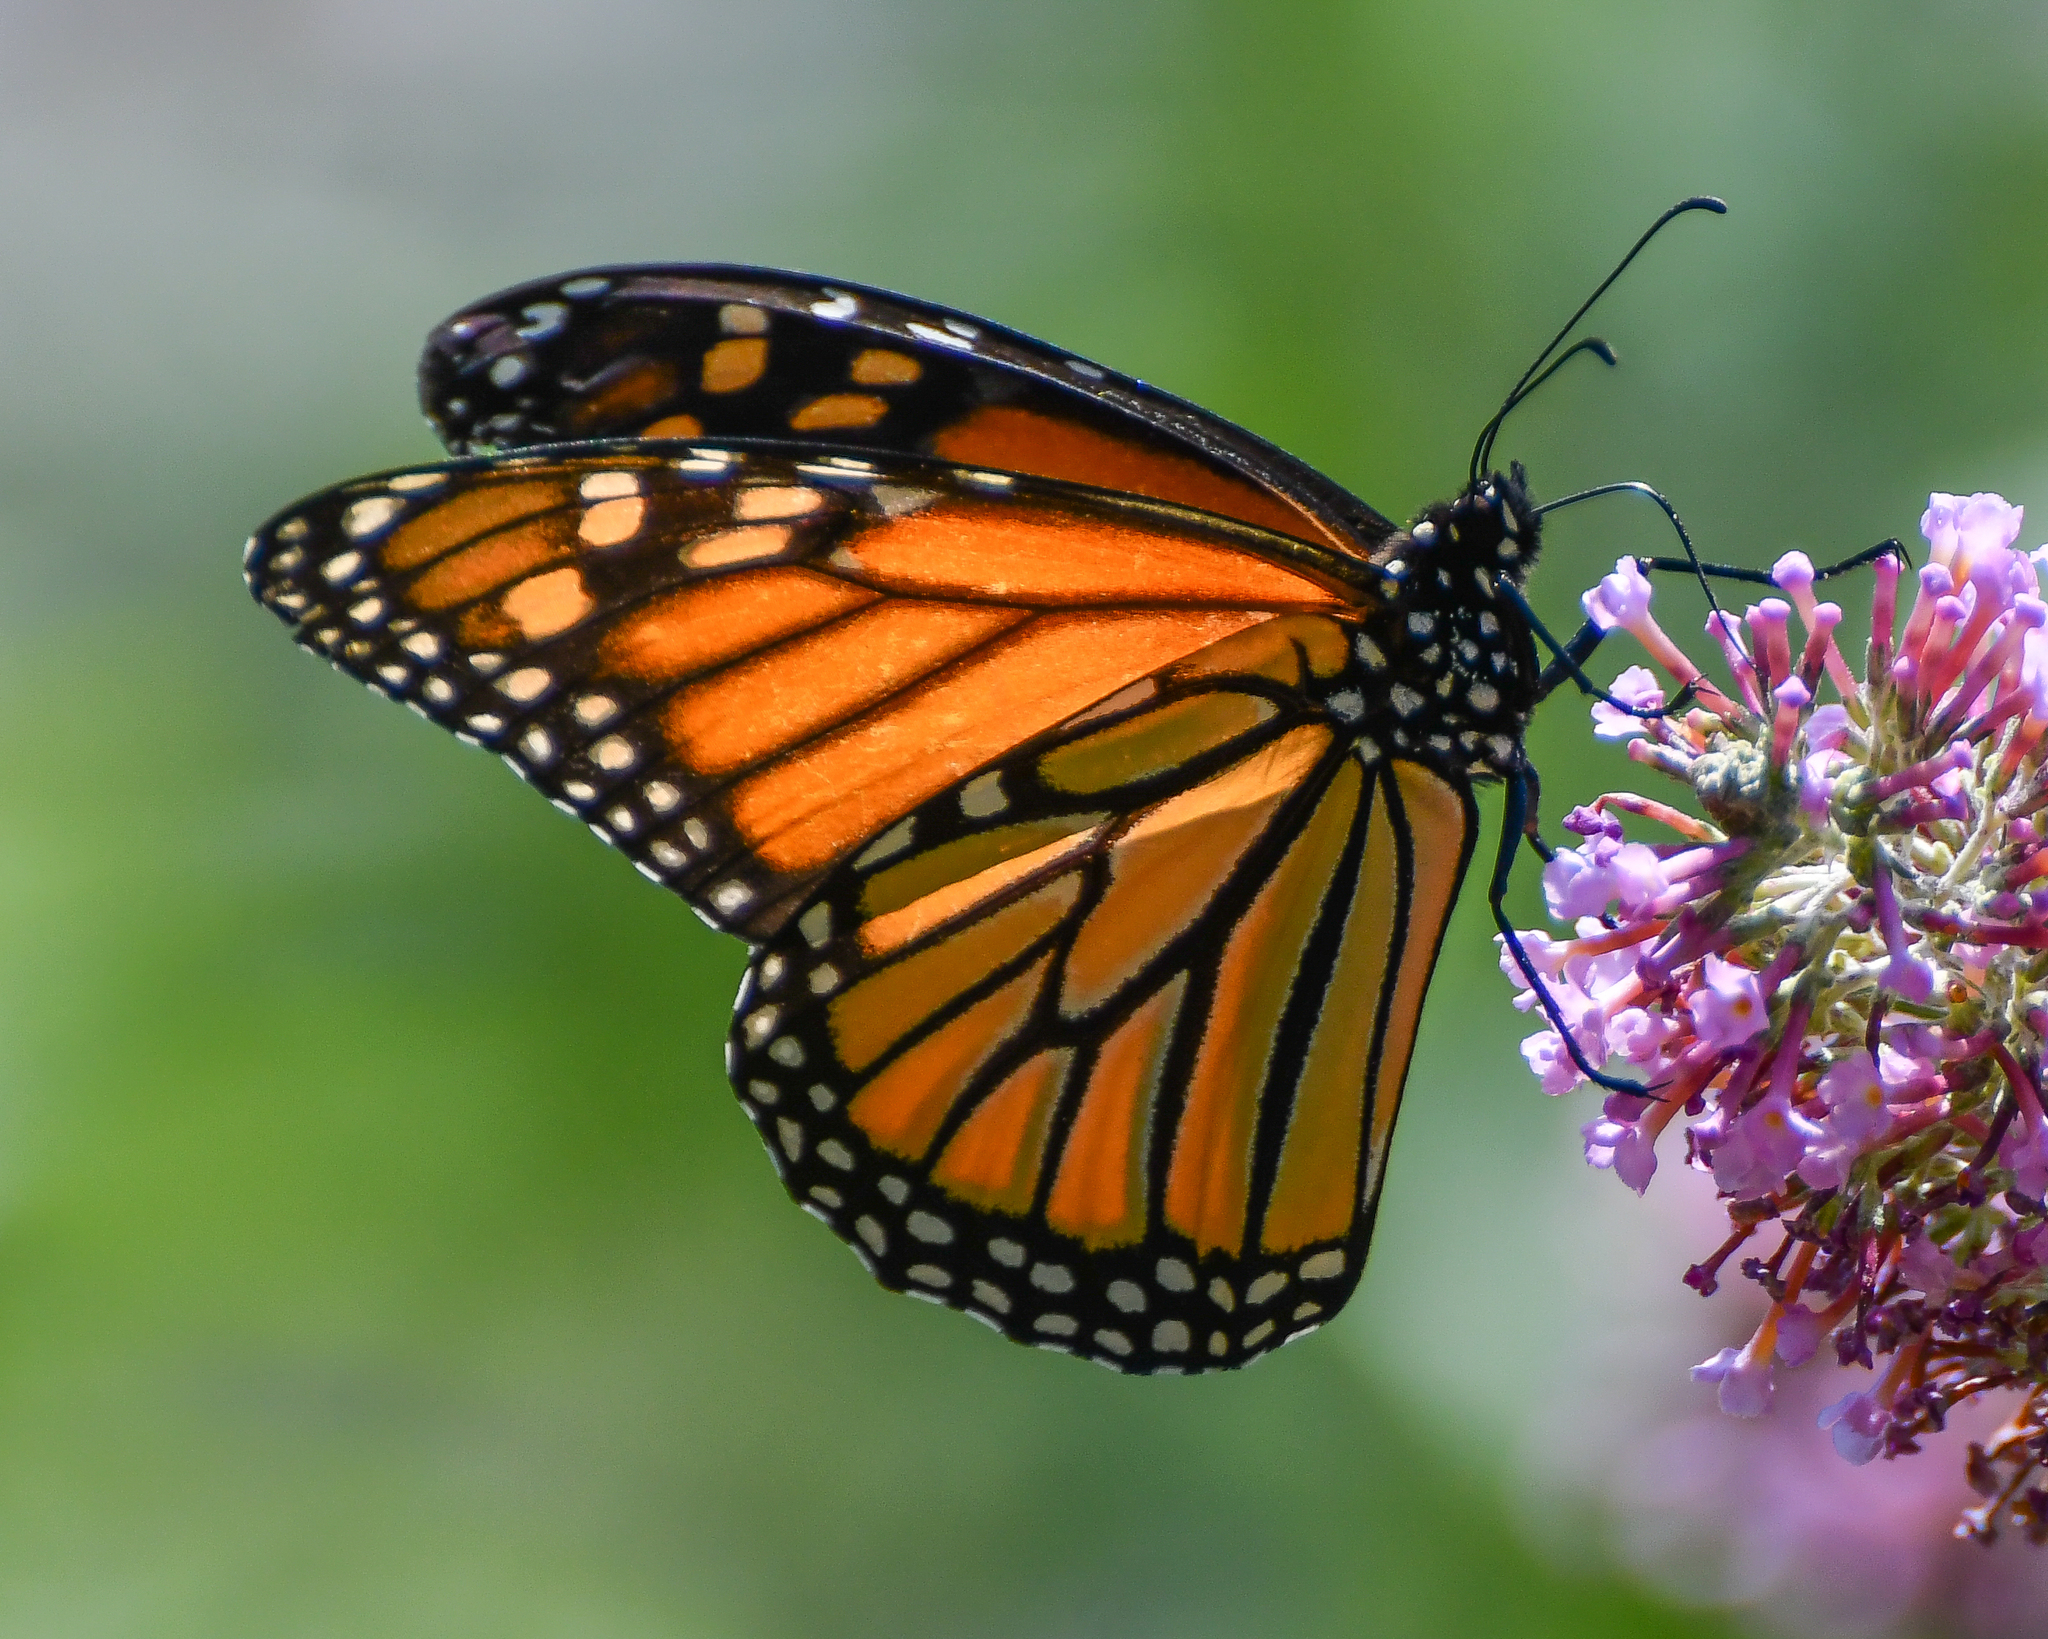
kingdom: Animalia
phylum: Arthropoda
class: Insecta
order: Lepidoptera
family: Nymphalidae
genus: Danaus
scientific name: Danaus plexippus
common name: Monarch
